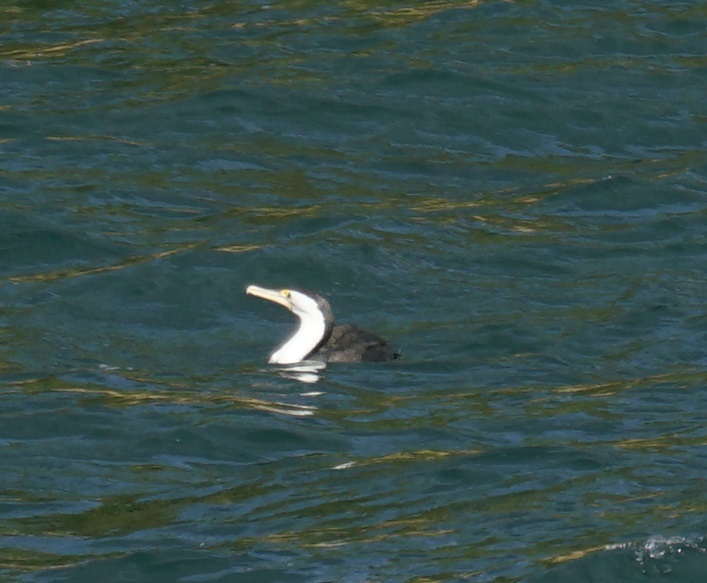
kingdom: Animalia
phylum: Chordata
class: Aves
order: Suliformes
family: Phalacrocoracidae
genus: Phalacrocorax
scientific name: Phalacrocorax varius
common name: Pied cormorant
